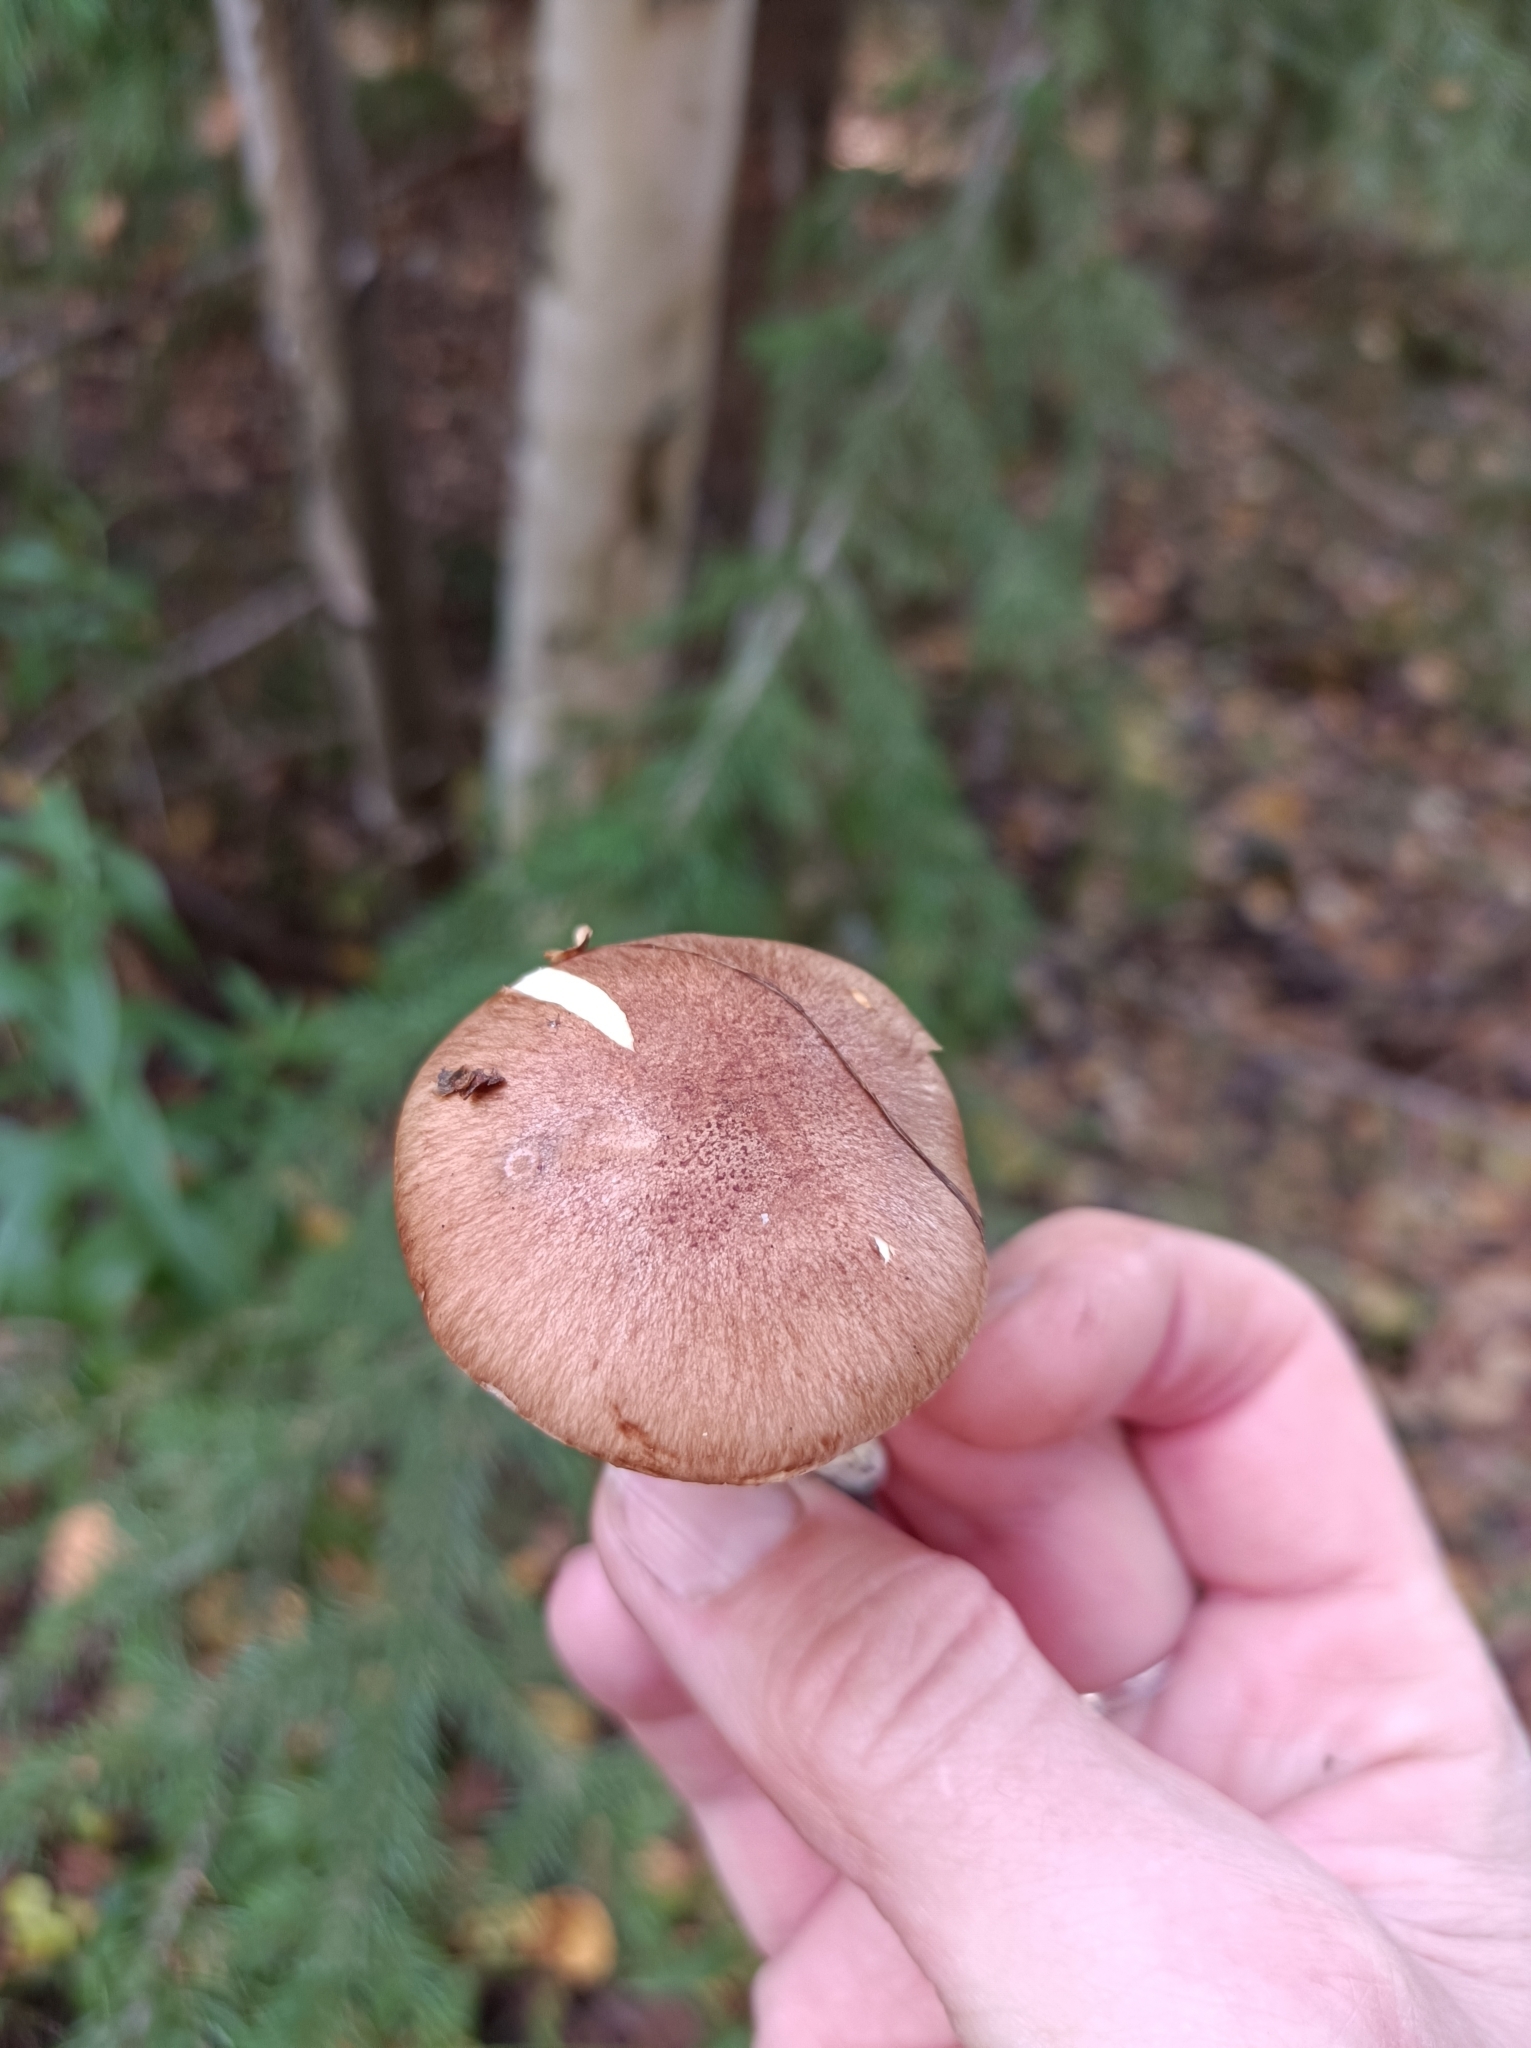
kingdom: Fungi
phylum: Basidiomycota
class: Agaricomycetes
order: Agaricales
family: Tricholomataceae
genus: Tricholoma
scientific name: Tricholoma fulvum
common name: Birch knight
